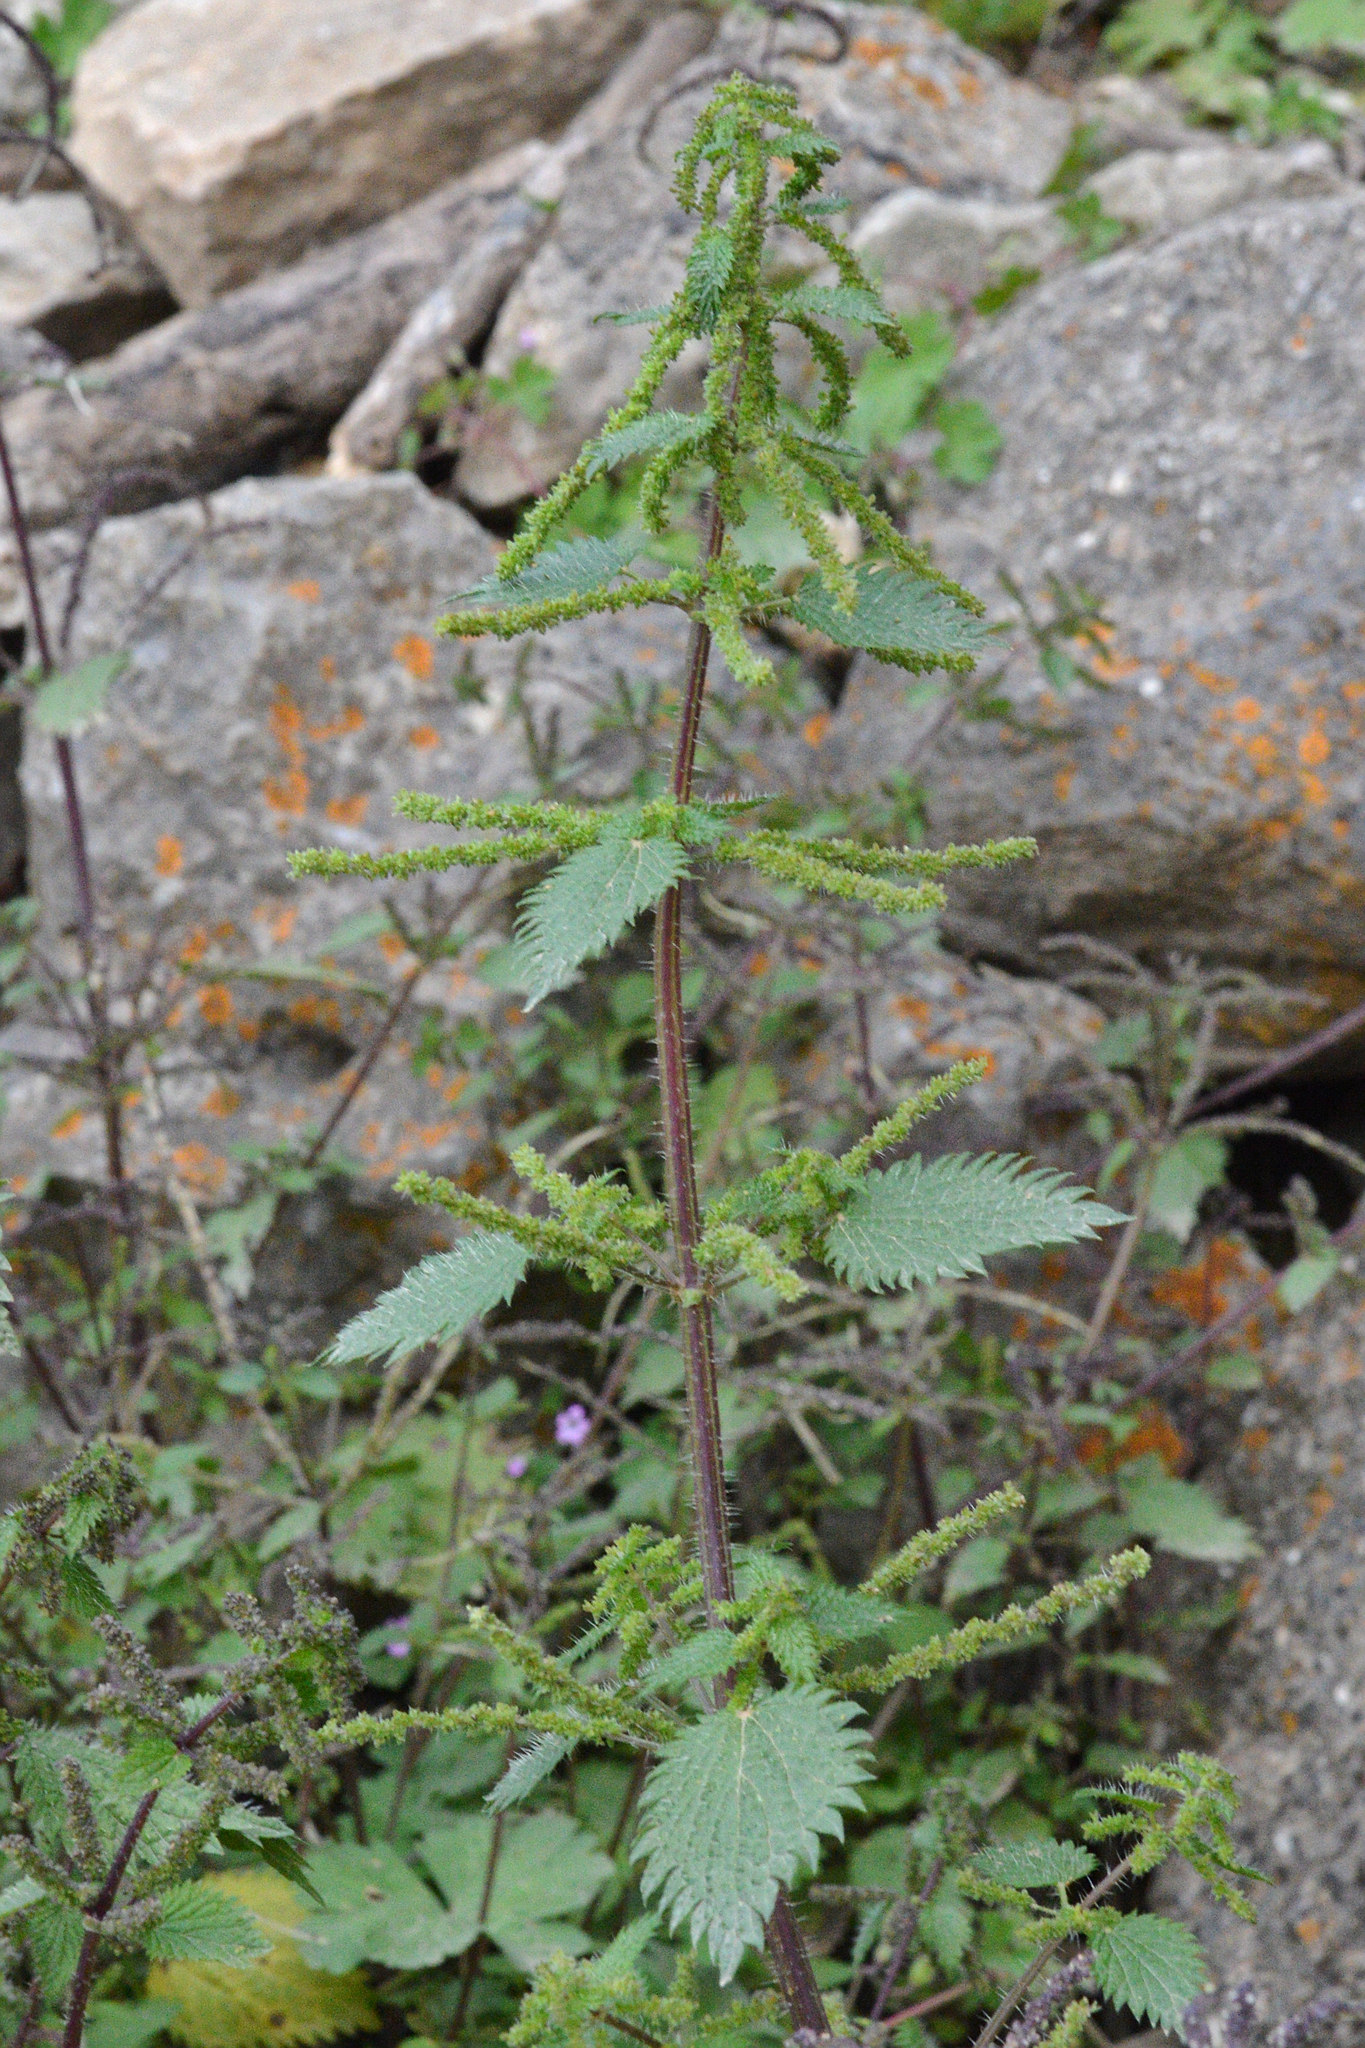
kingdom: Plantae
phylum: Tracheophyta
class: Magnoliopsida
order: Rosales
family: Urticaceae
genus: Urtica
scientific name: Urtica membranacea
